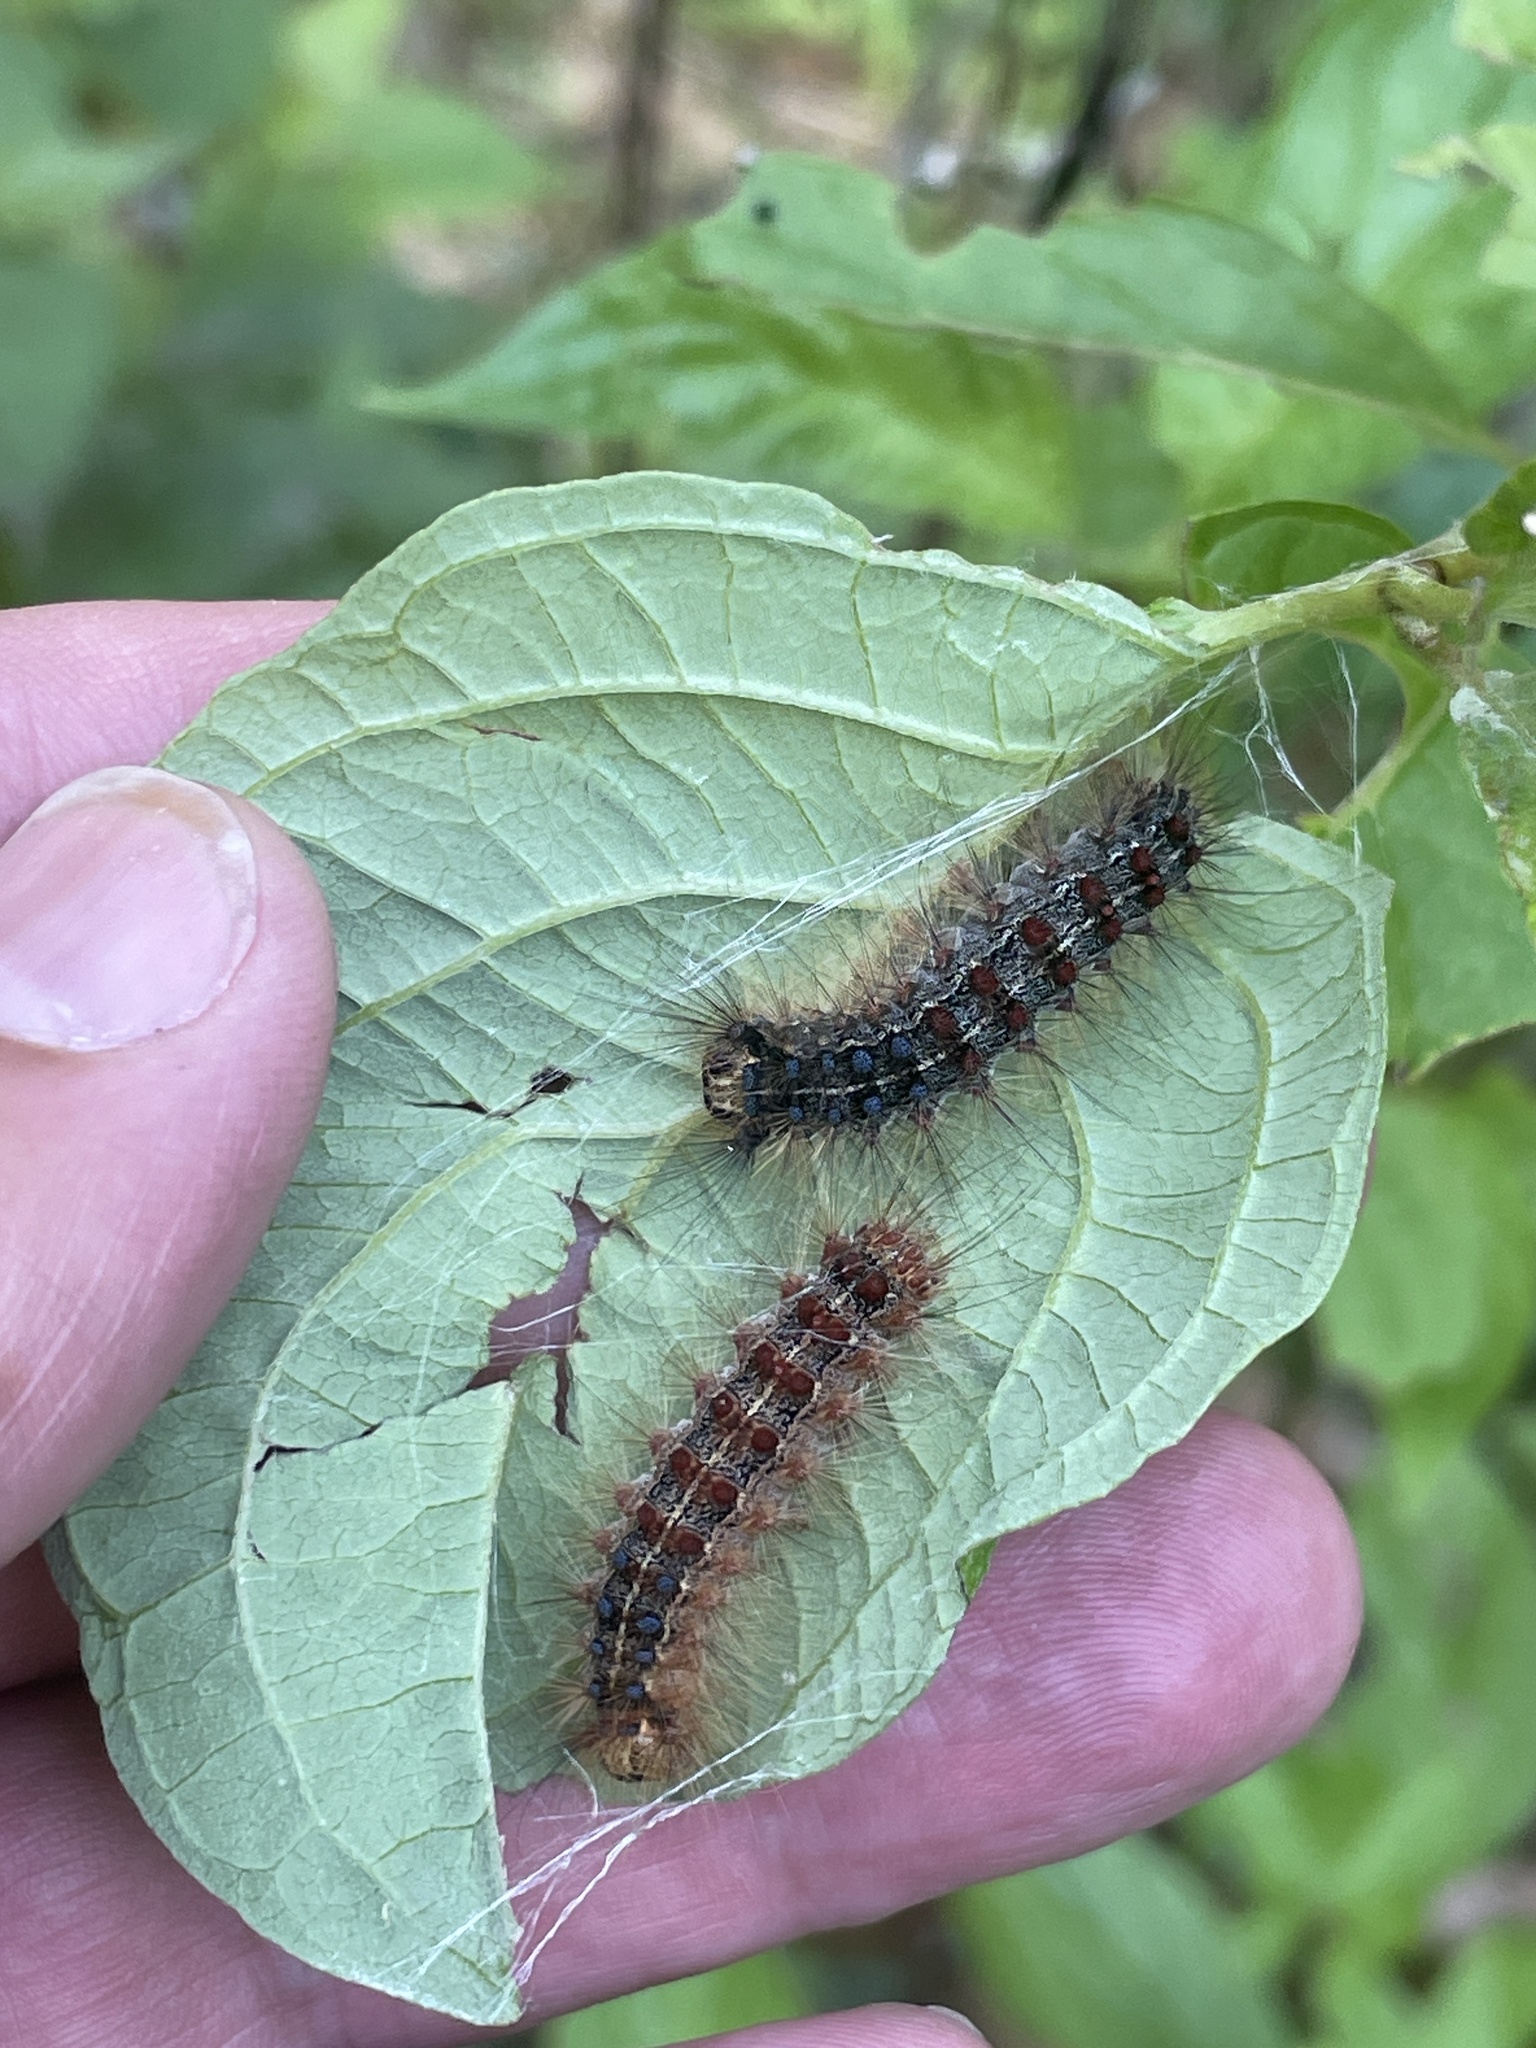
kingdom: Animalia
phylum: Arthropoda
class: Insecta
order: Lepidoptera
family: Erebidae
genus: Lymantria
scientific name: Lymantria dispar
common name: Gypsy moth
